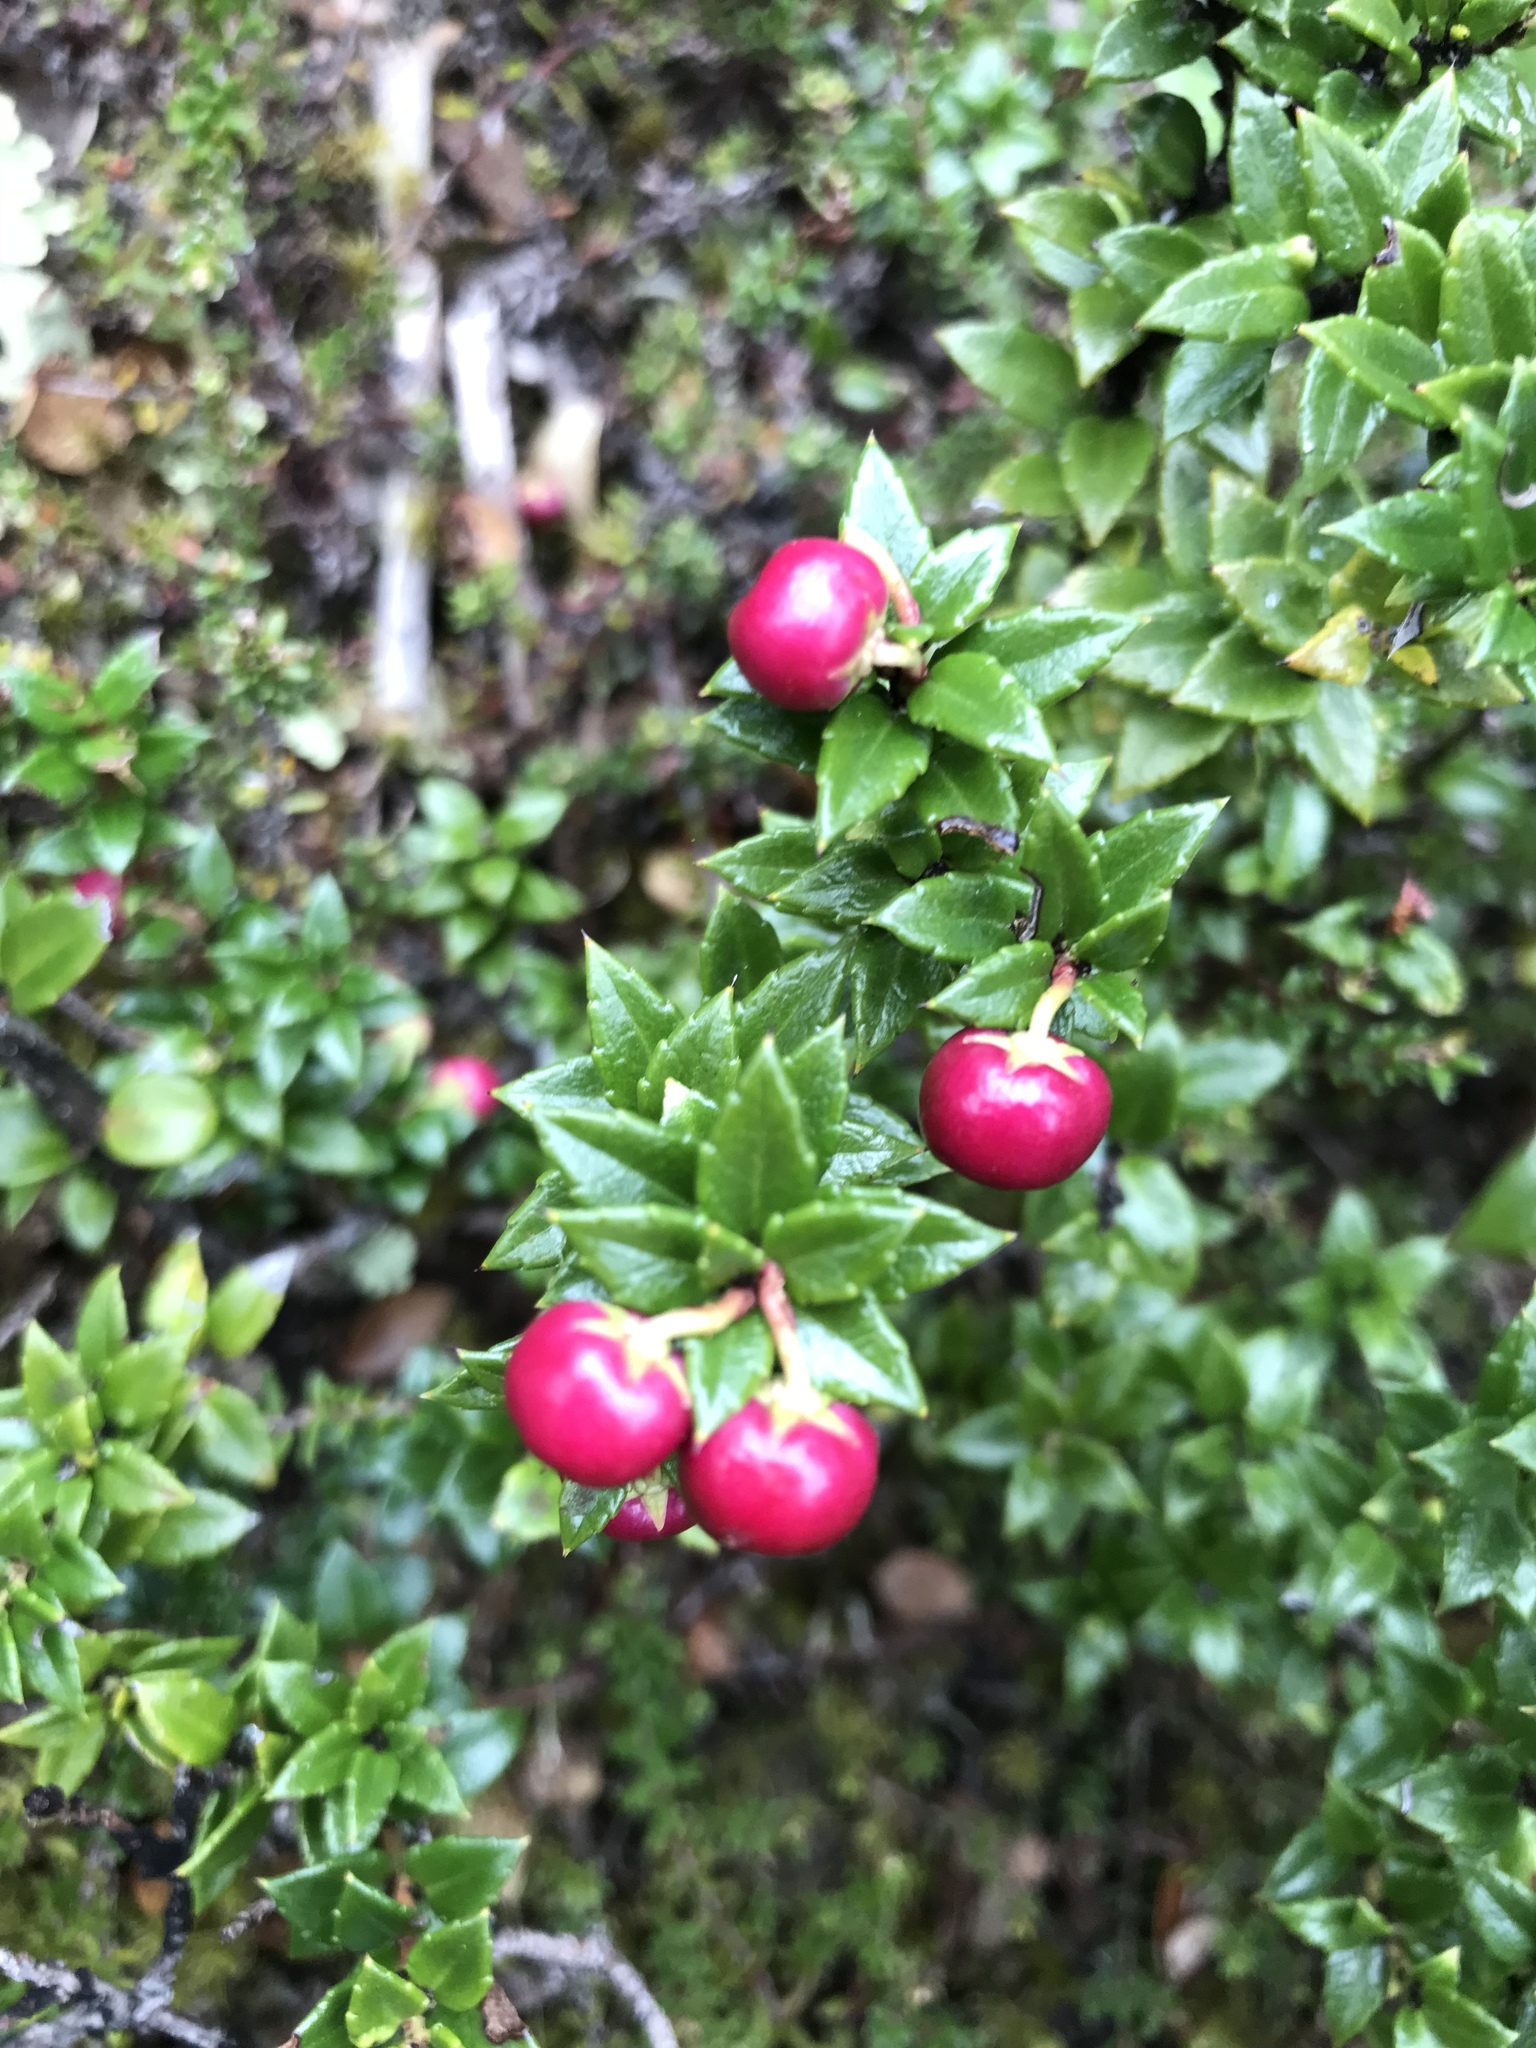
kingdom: Plantae
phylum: Tracheophyta
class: Magnoliopsida
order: Ericales
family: Ericaceae
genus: Gaultheria
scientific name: Gaultheria mucronata
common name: Prickly heath
